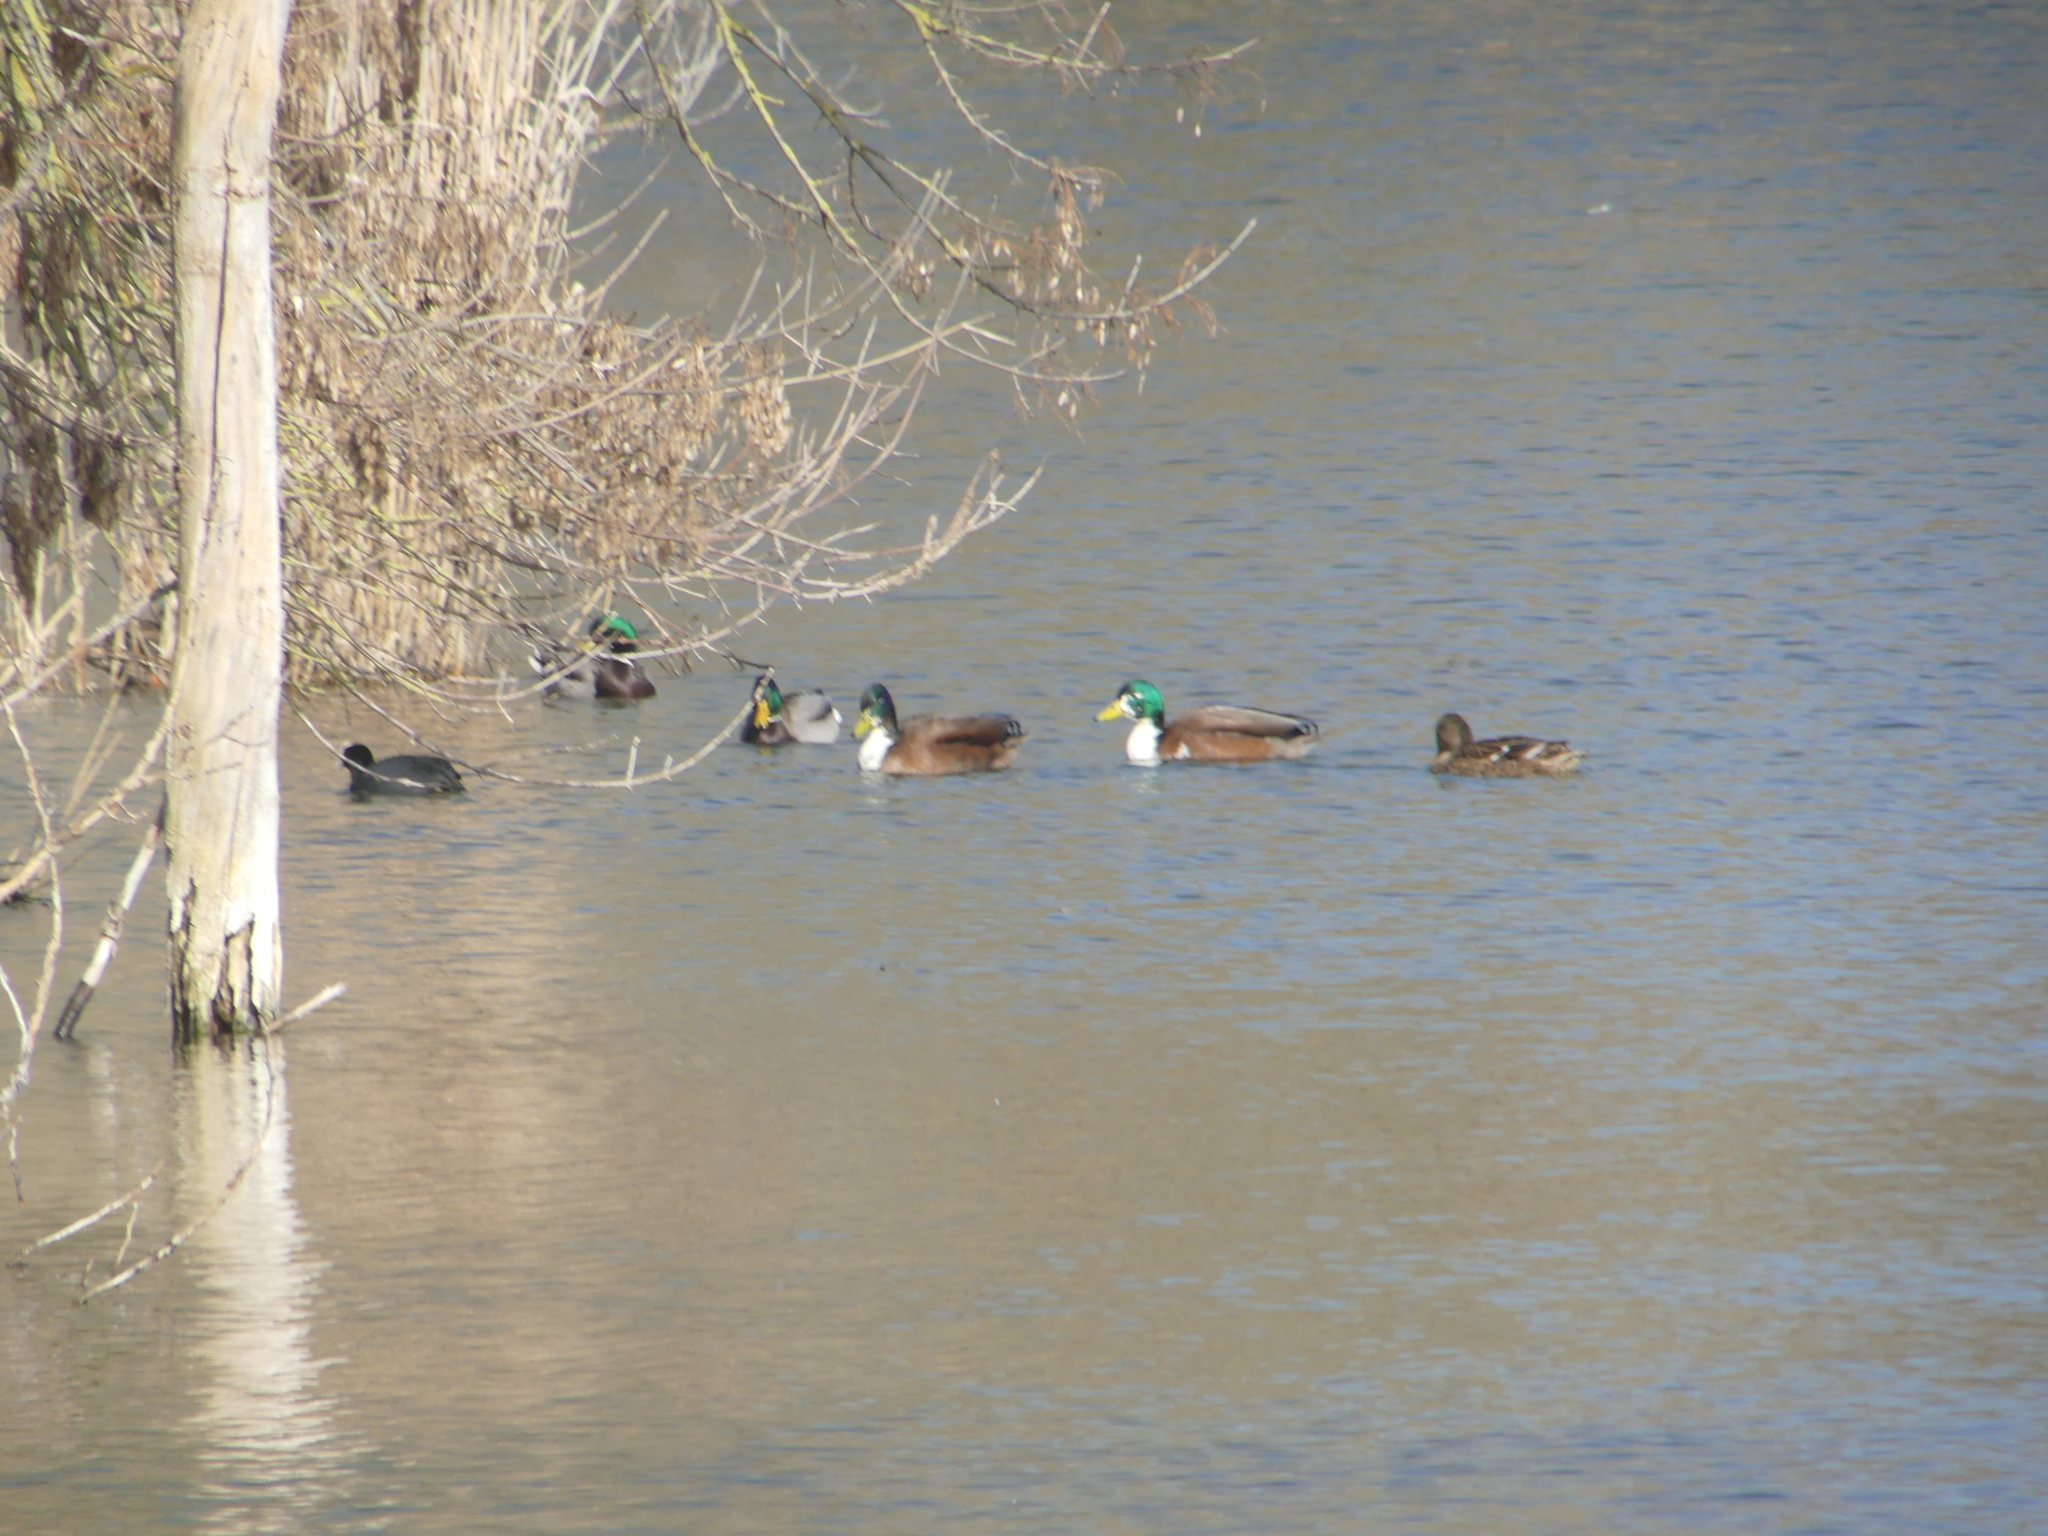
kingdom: Animalia
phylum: Chordata
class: Aves
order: Anseriformes
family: Anatidae
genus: Anas
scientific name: Anas platyrhynchos
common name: Mallard
